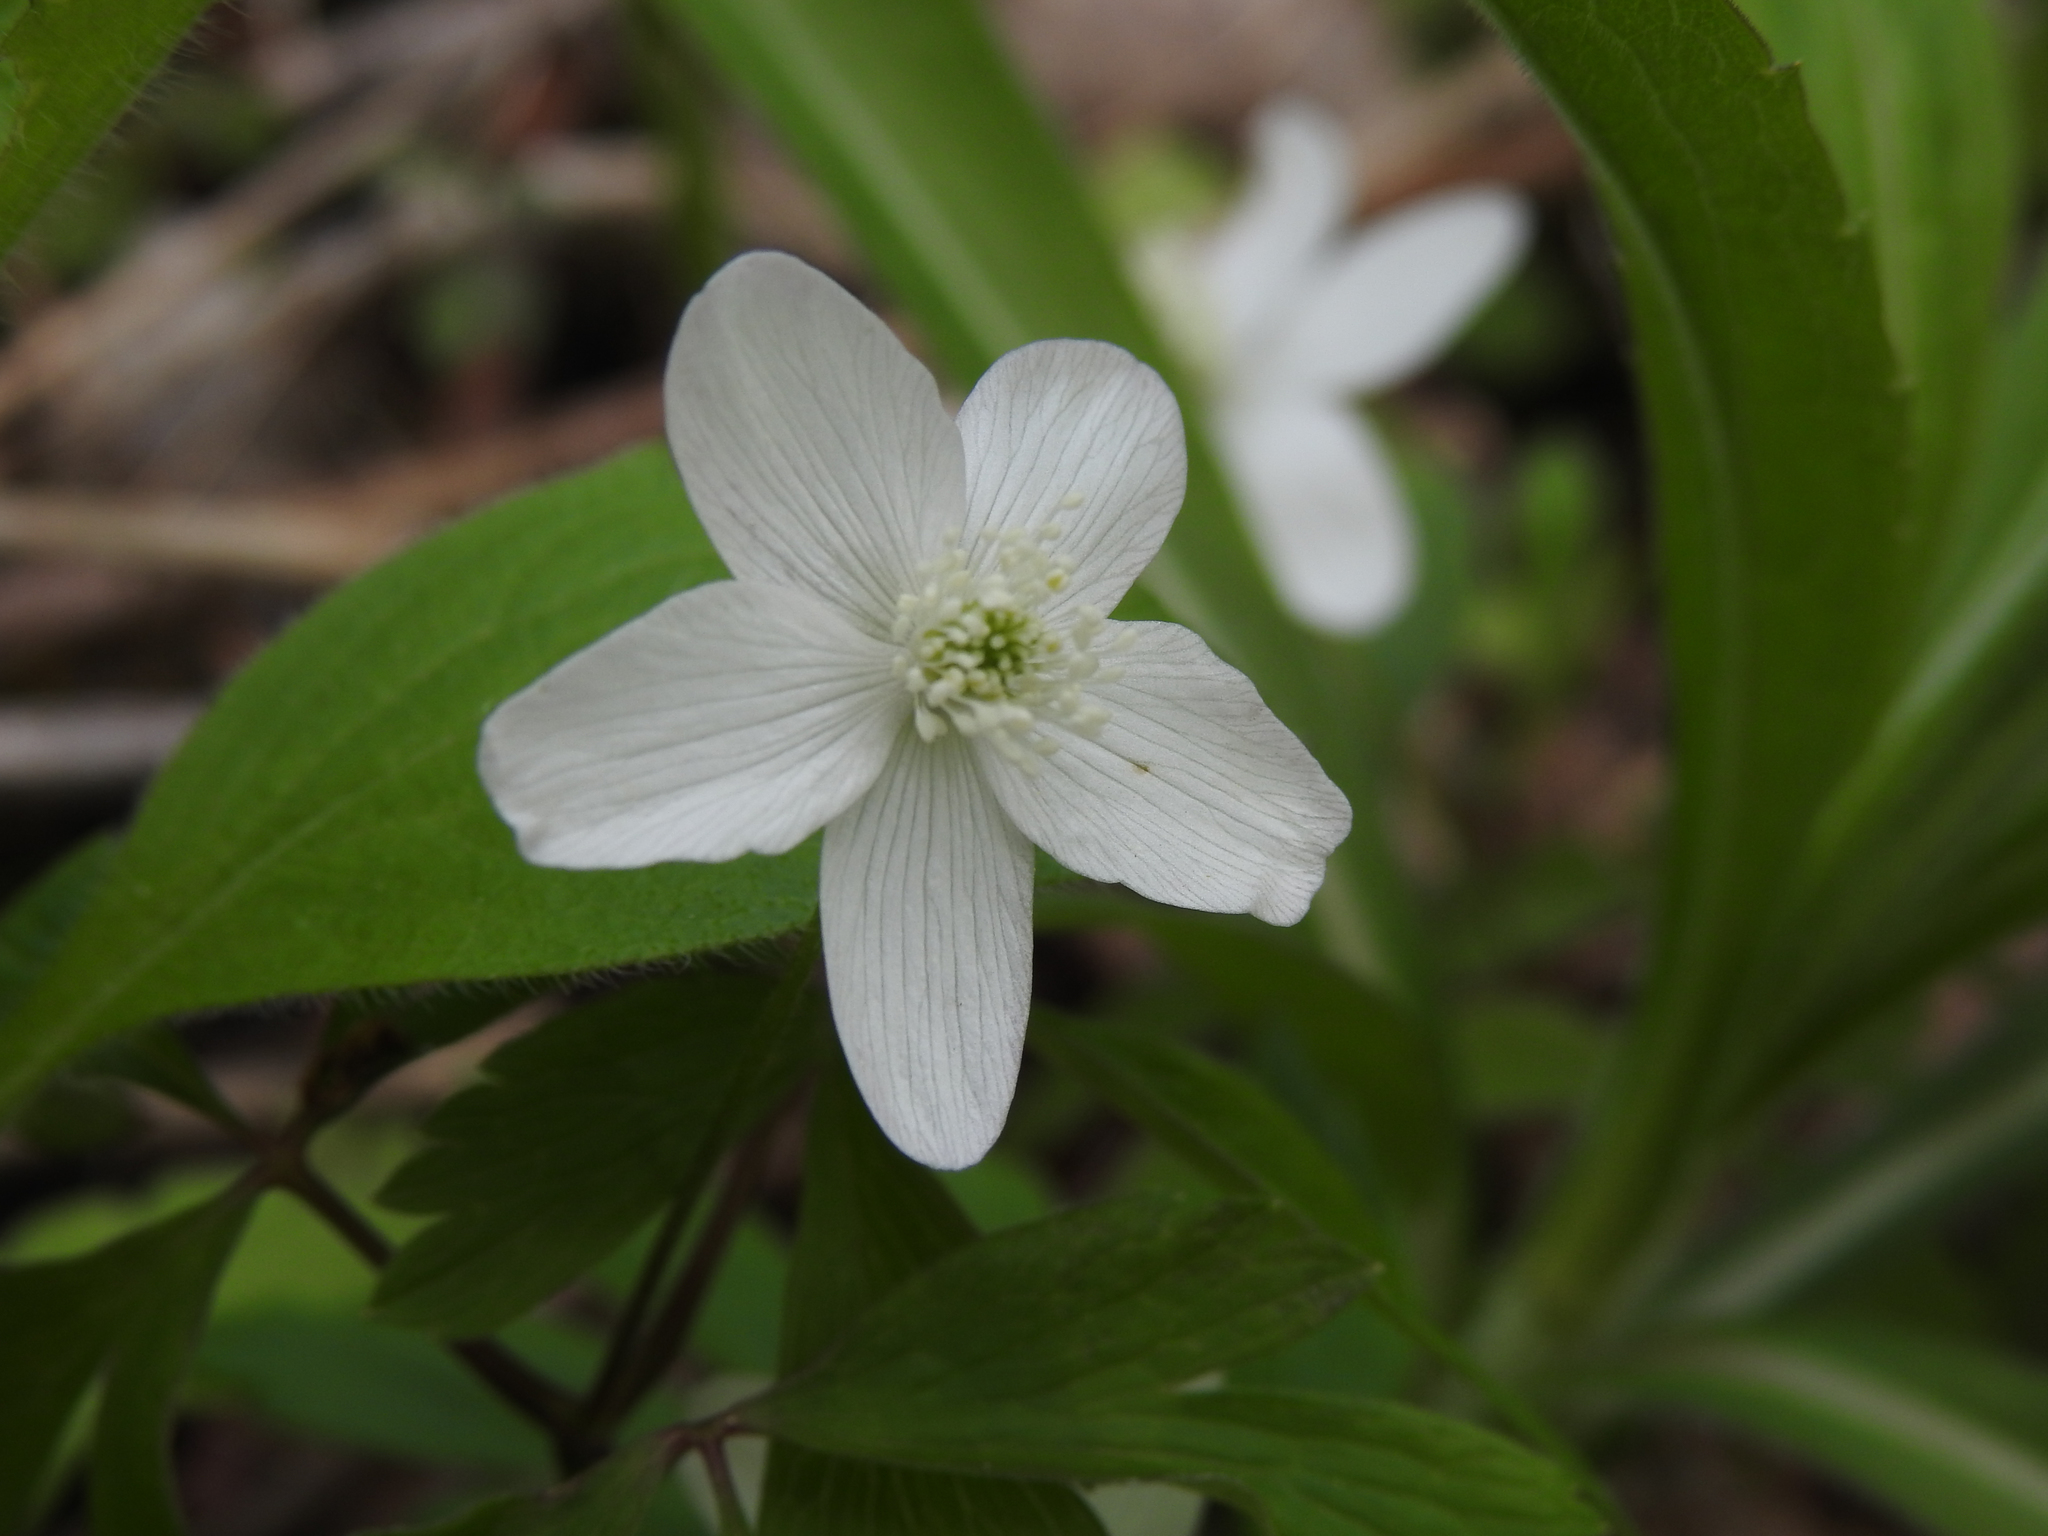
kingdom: Plantae
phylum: Tracheophyta
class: Magnoliopsida
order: Ranunculales
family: Ranunculaceae
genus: Anemone
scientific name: Anemone quinquefolia
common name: Wood anemone
